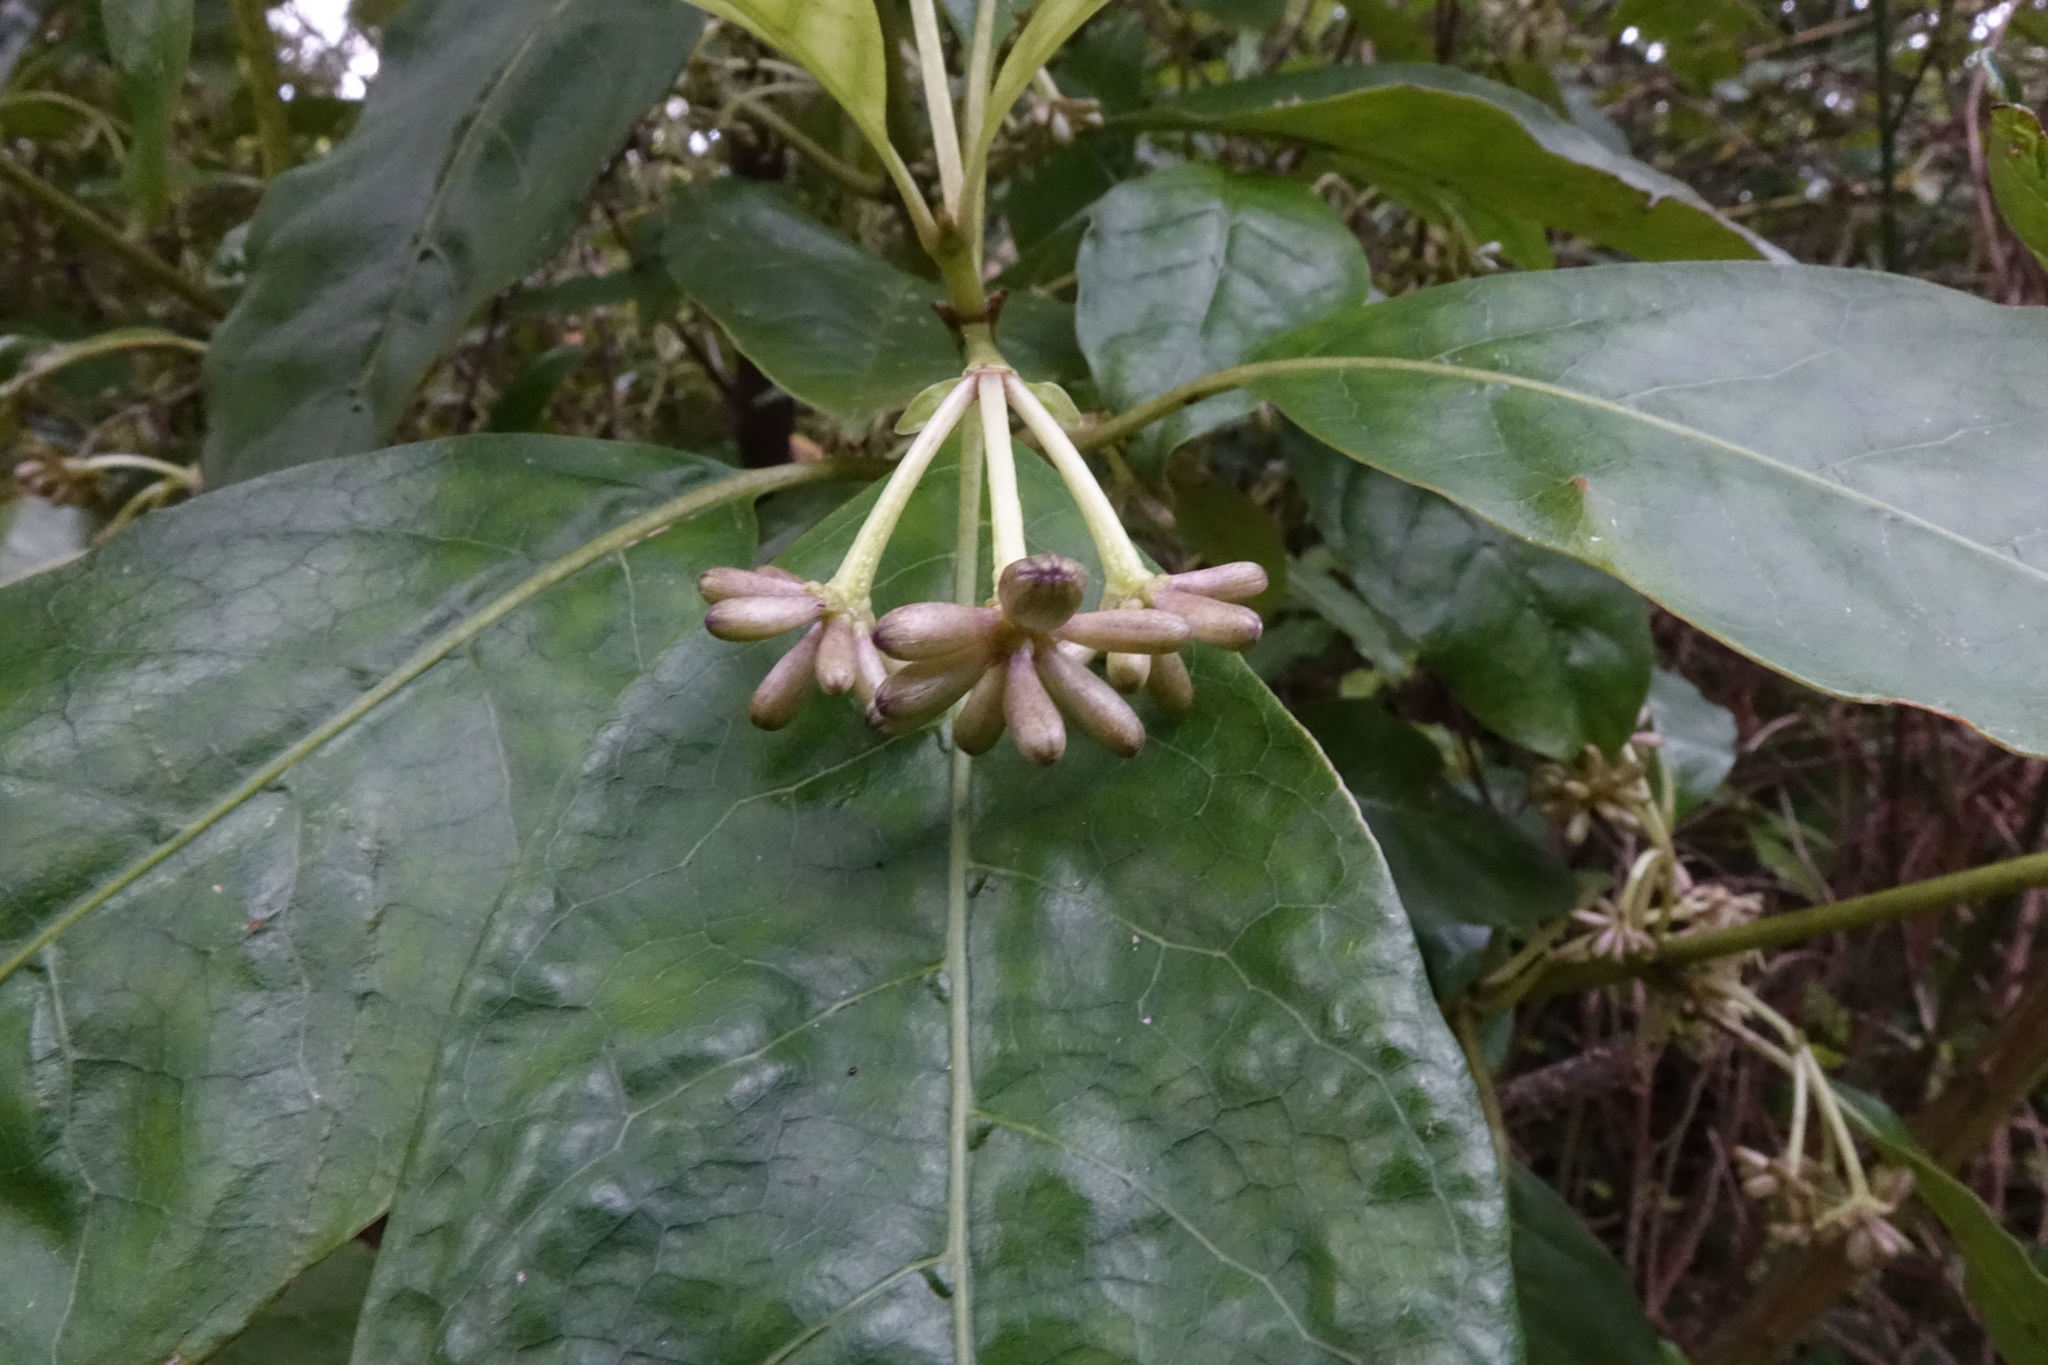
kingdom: Plantae
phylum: Tracheophyta
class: Magnoliopsida
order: Gentianales
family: Rubiaceae
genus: Coprosma
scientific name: Coprosma autumnalis
